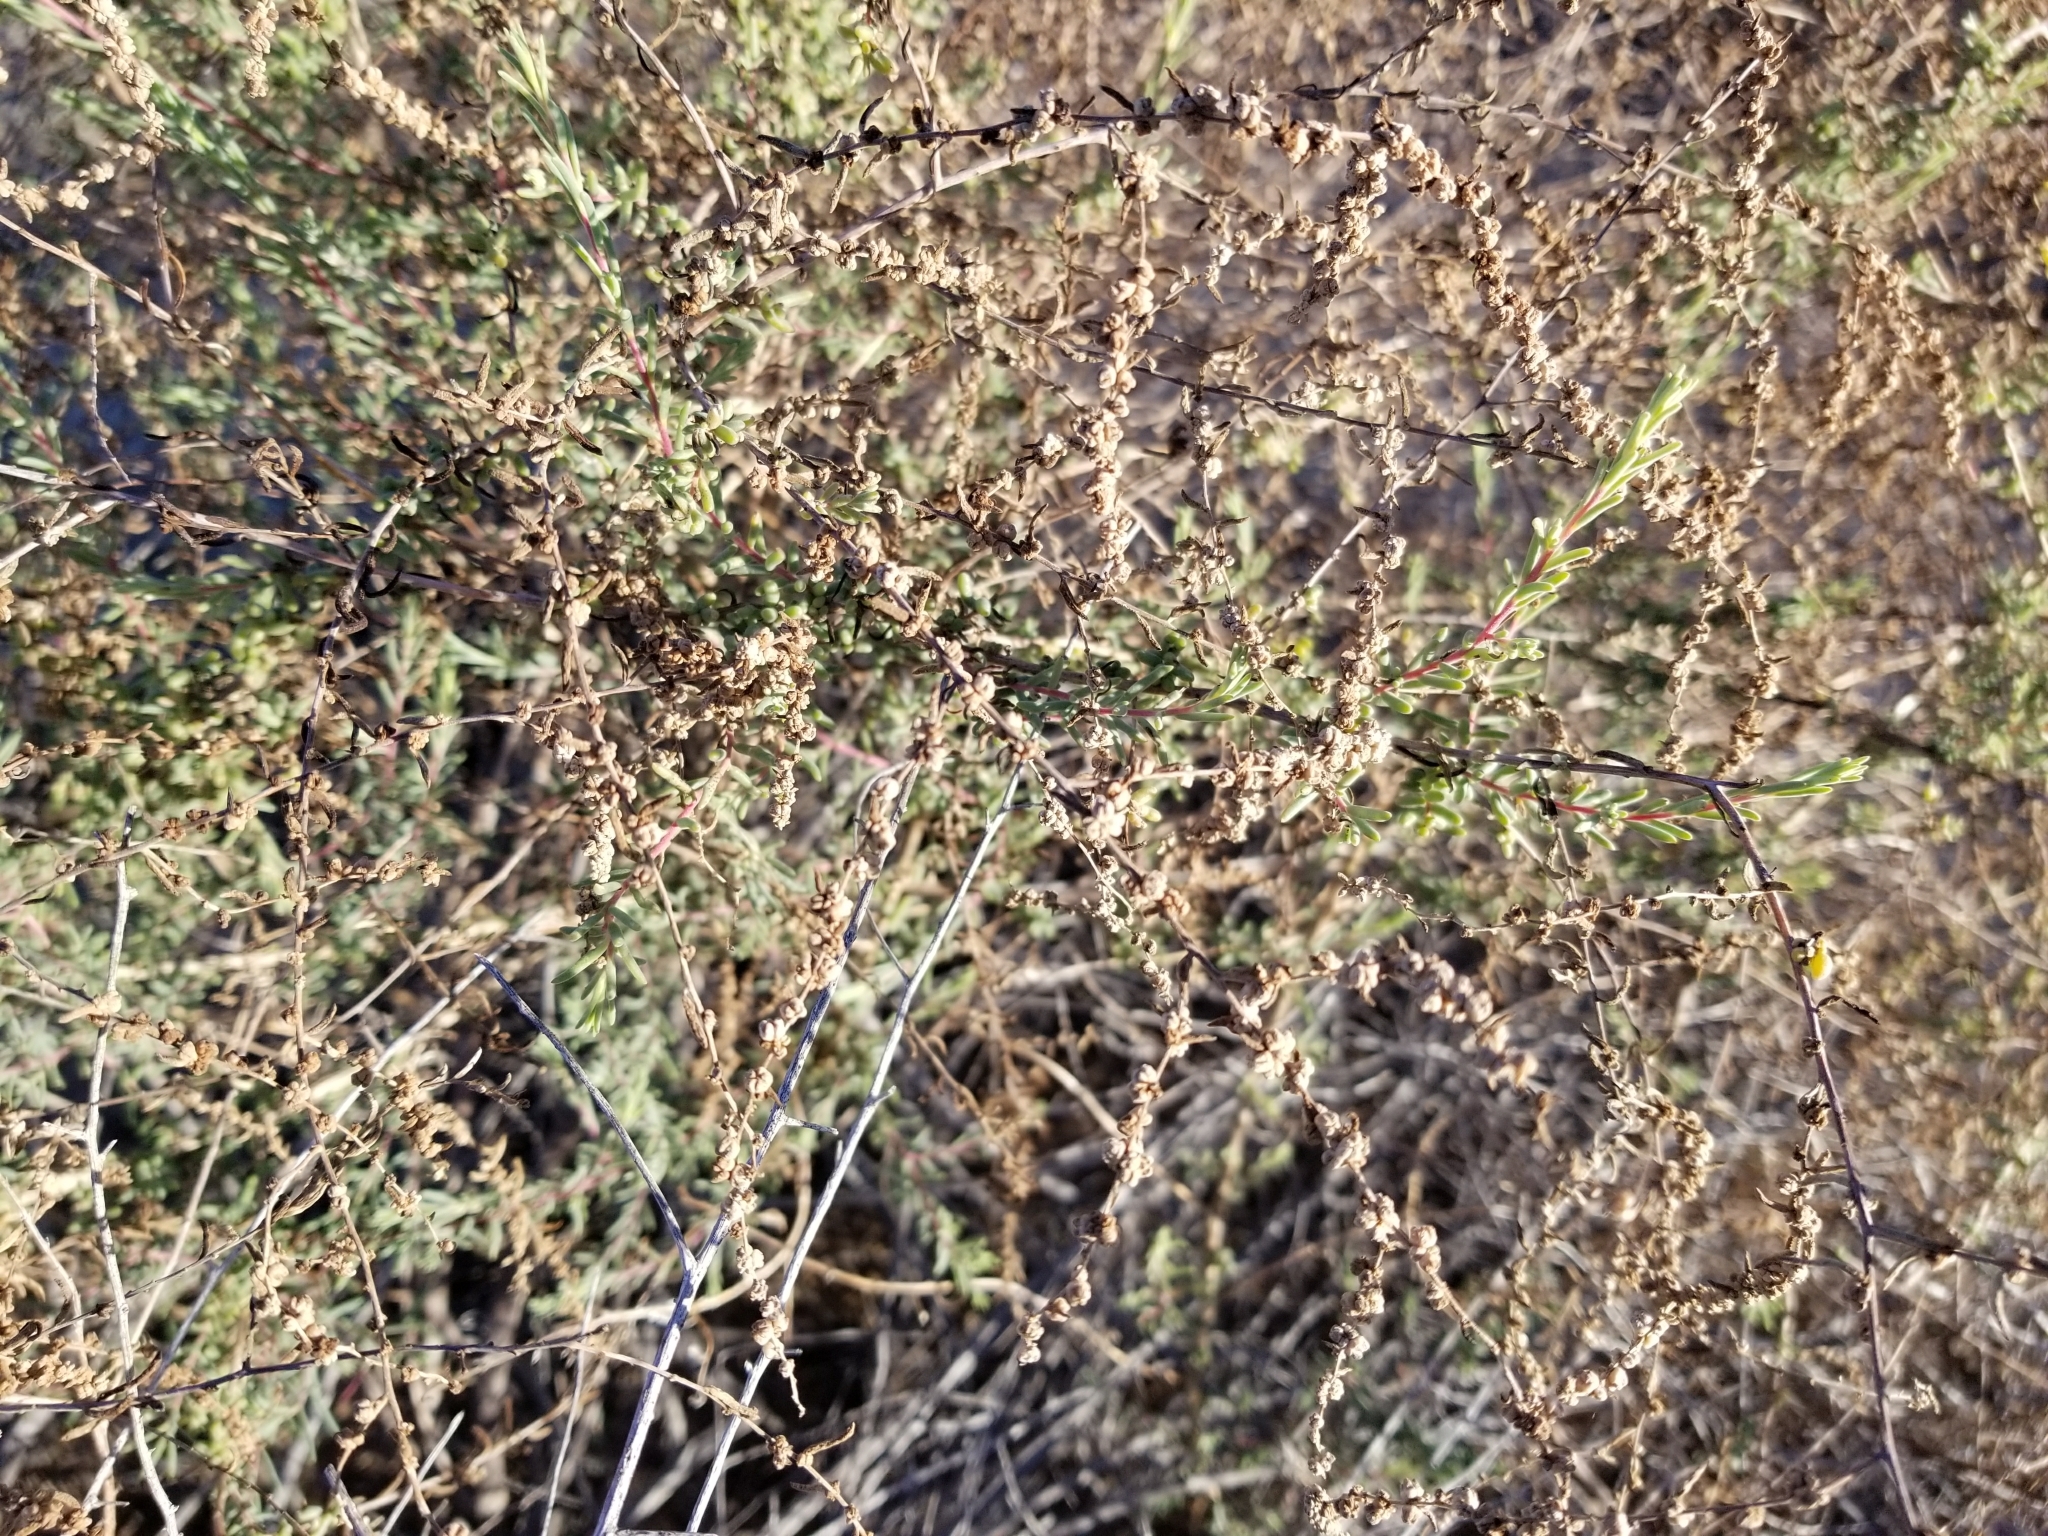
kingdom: Plantae
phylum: Tracheophyta
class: Magnoliopsida
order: Caryophyllales
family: Amaranthaceae
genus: Suaeda
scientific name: Suaeda nigra
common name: Bush seepweed
